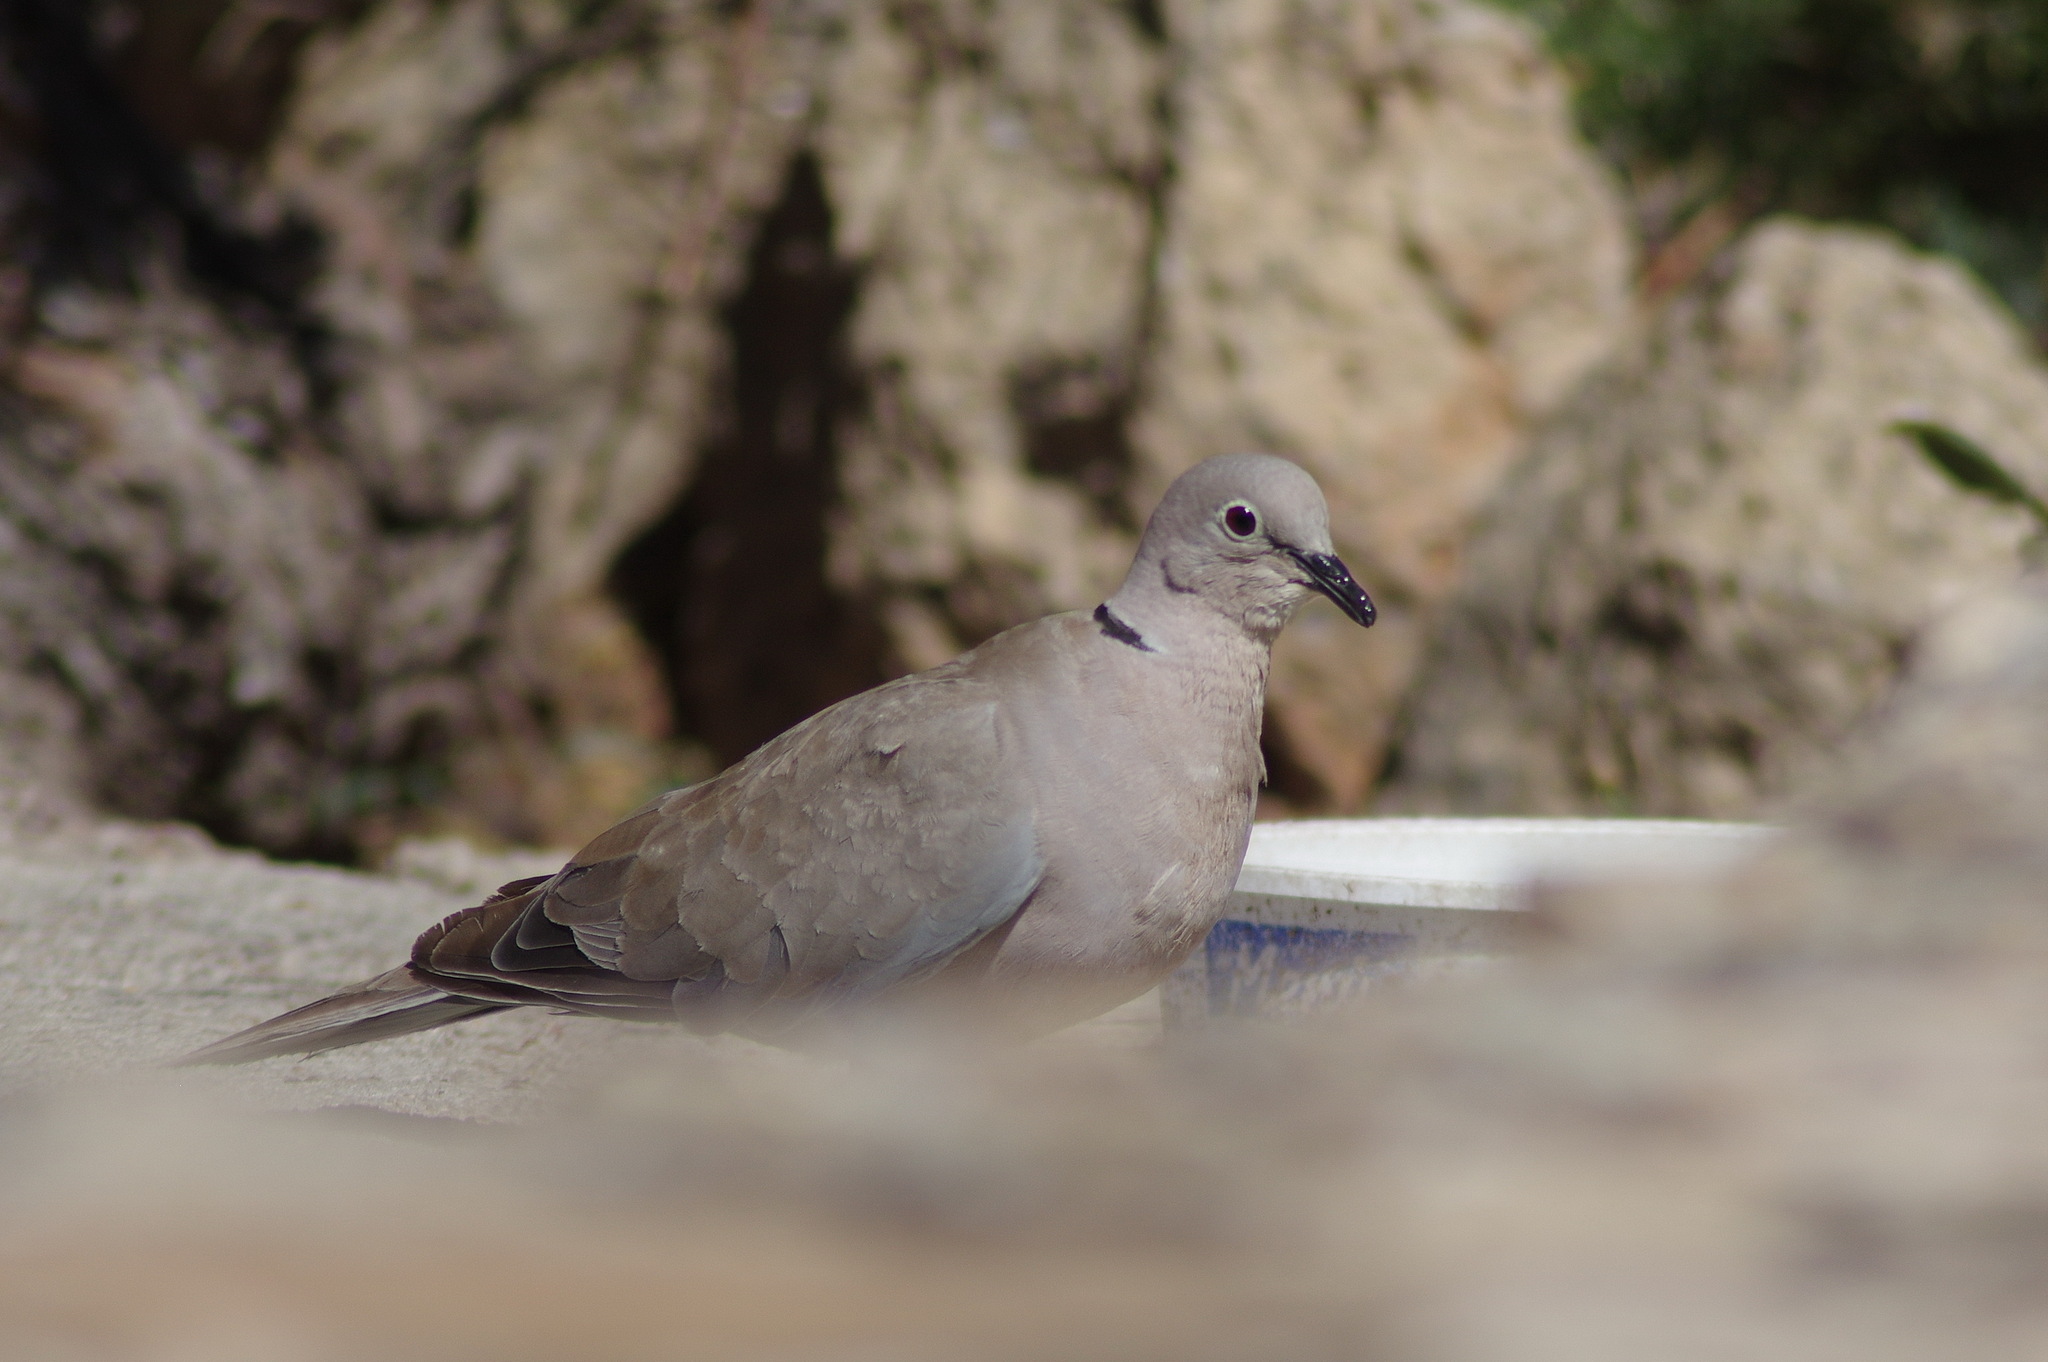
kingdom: Animalia
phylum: Chordata
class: Aves
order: Columbiformes
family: Columbidae
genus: Streptopelia
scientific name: Streptopelia decaocto
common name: Eurasian collared dove
